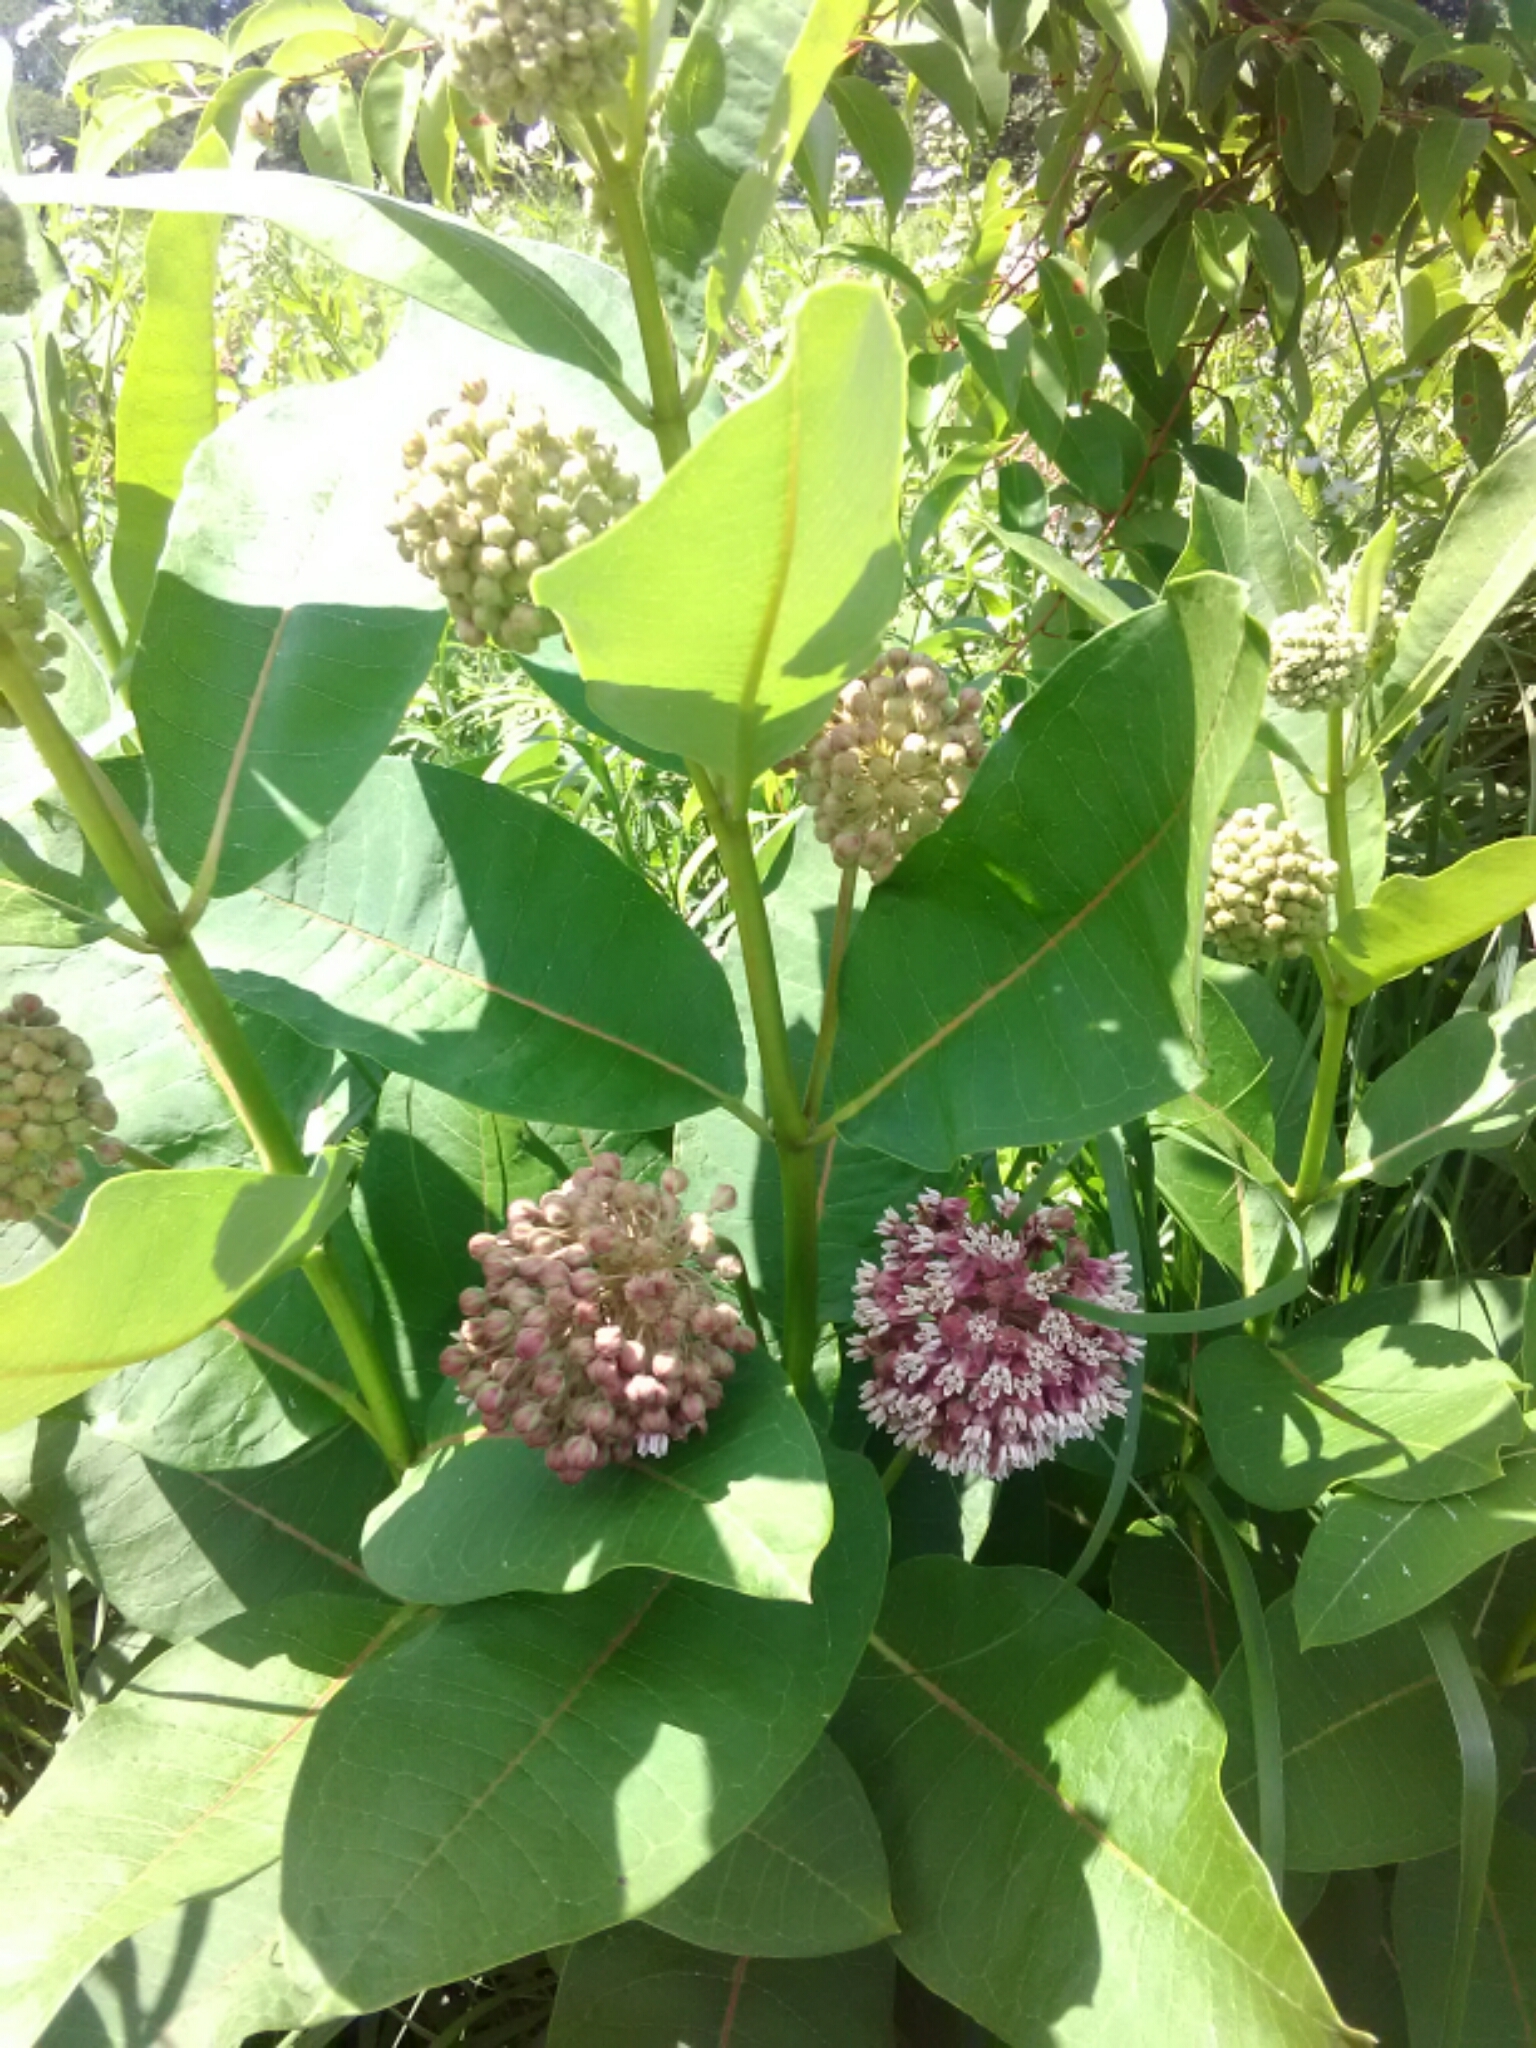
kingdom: Plantae
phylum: Tracheophyta
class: Magnoliopsida
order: Gentianales
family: Apocynaceae
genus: Asclepias
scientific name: Asclepias syriaca
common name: Common milkweed
